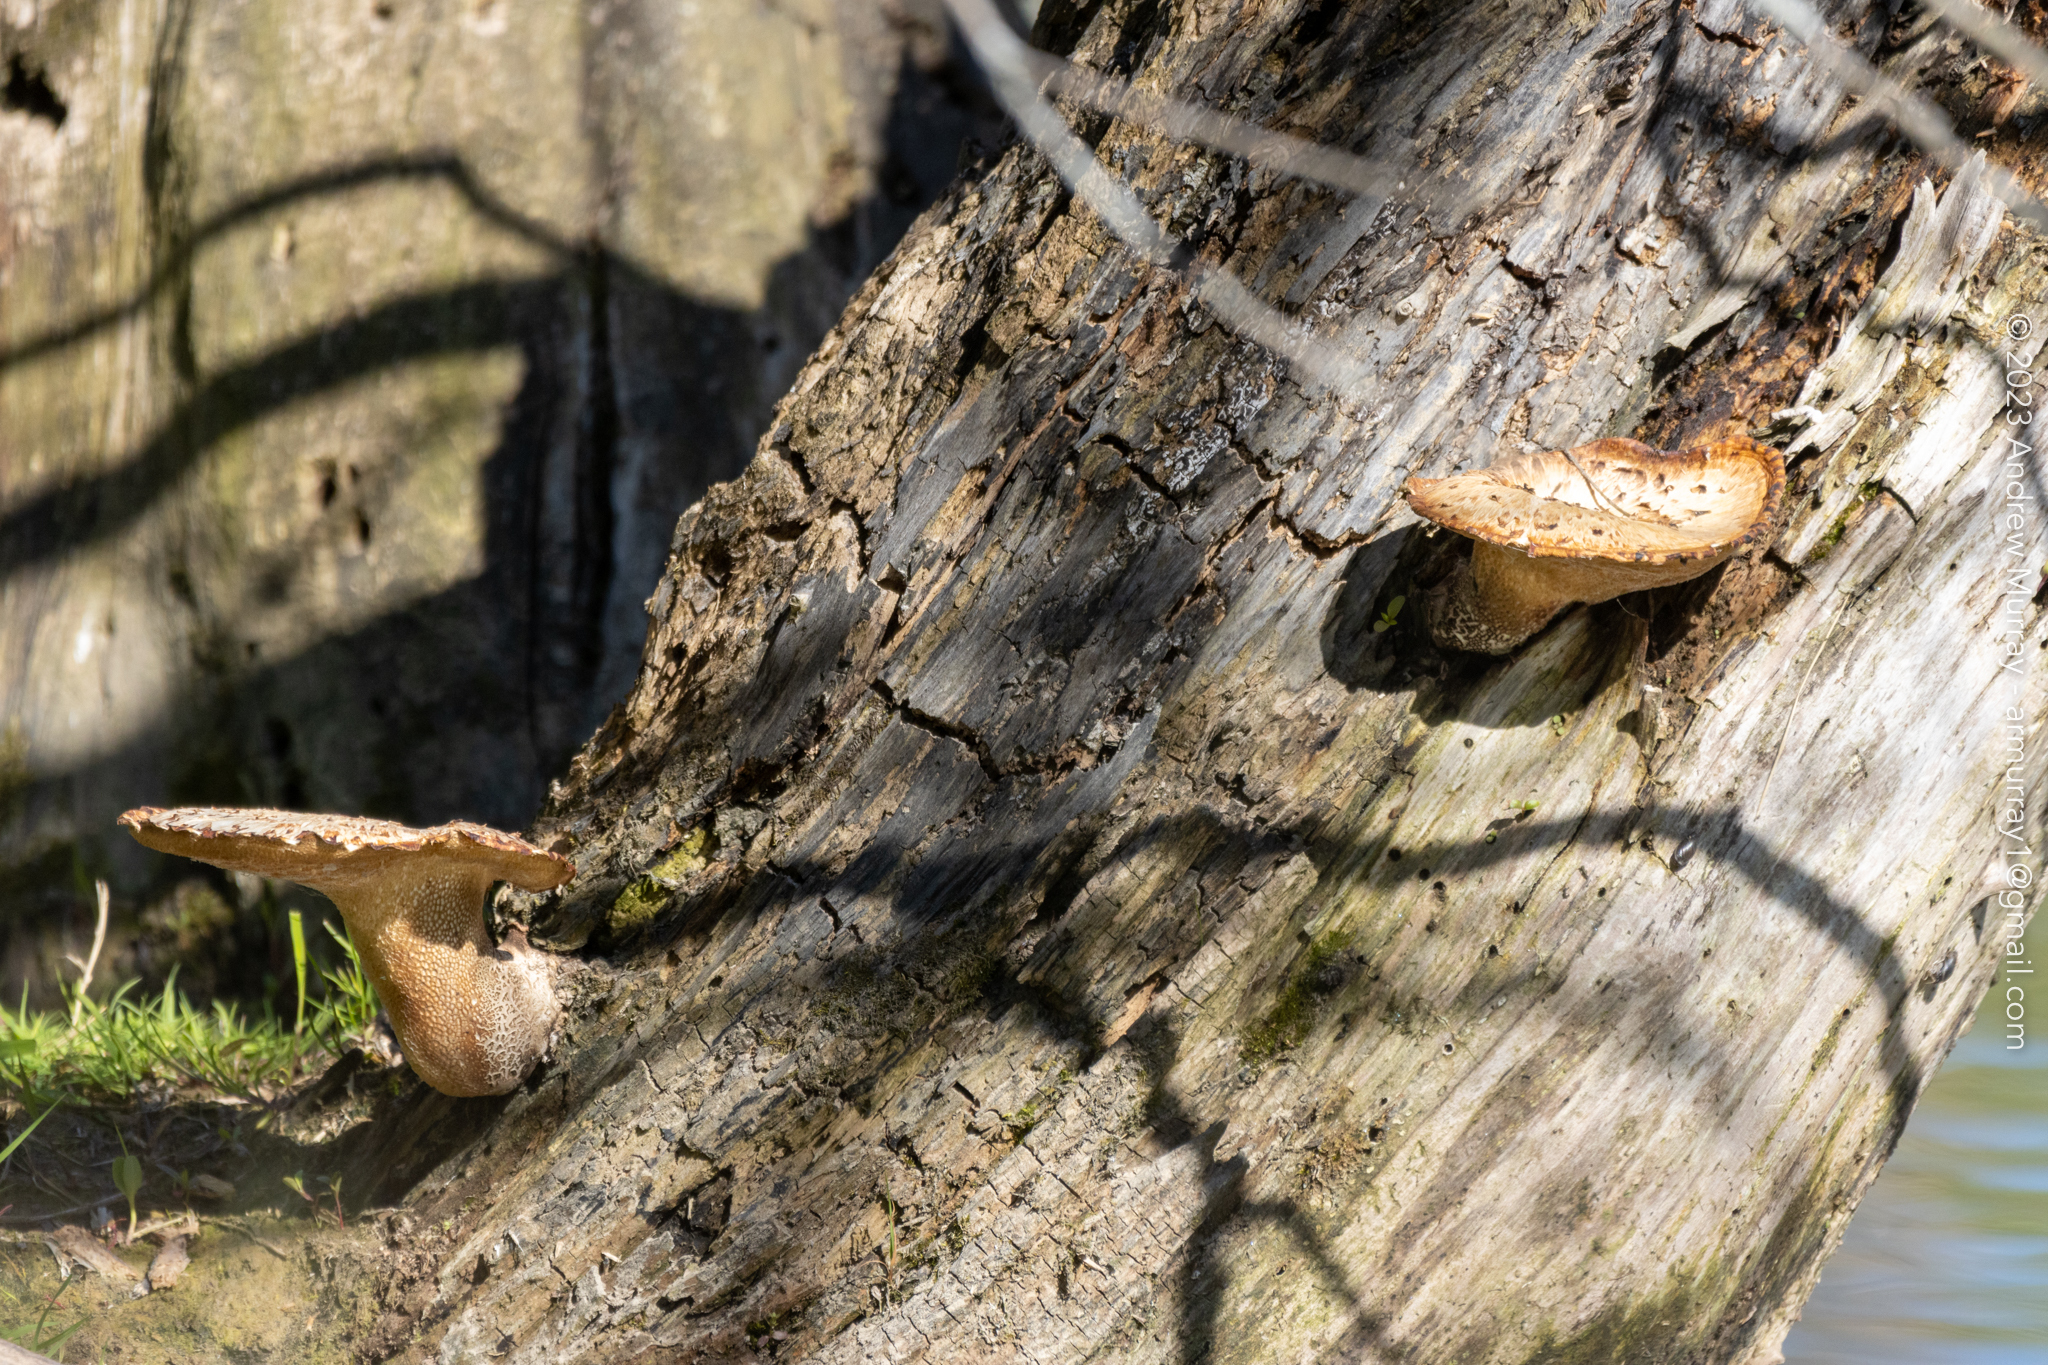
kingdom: Fungi
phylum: Basidiomycota
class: Agaricomycetes
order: Polyporales
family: Polyporaceae
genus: Cerioporus
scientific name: Cerioporus squamosus
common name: Dryad's saddle
